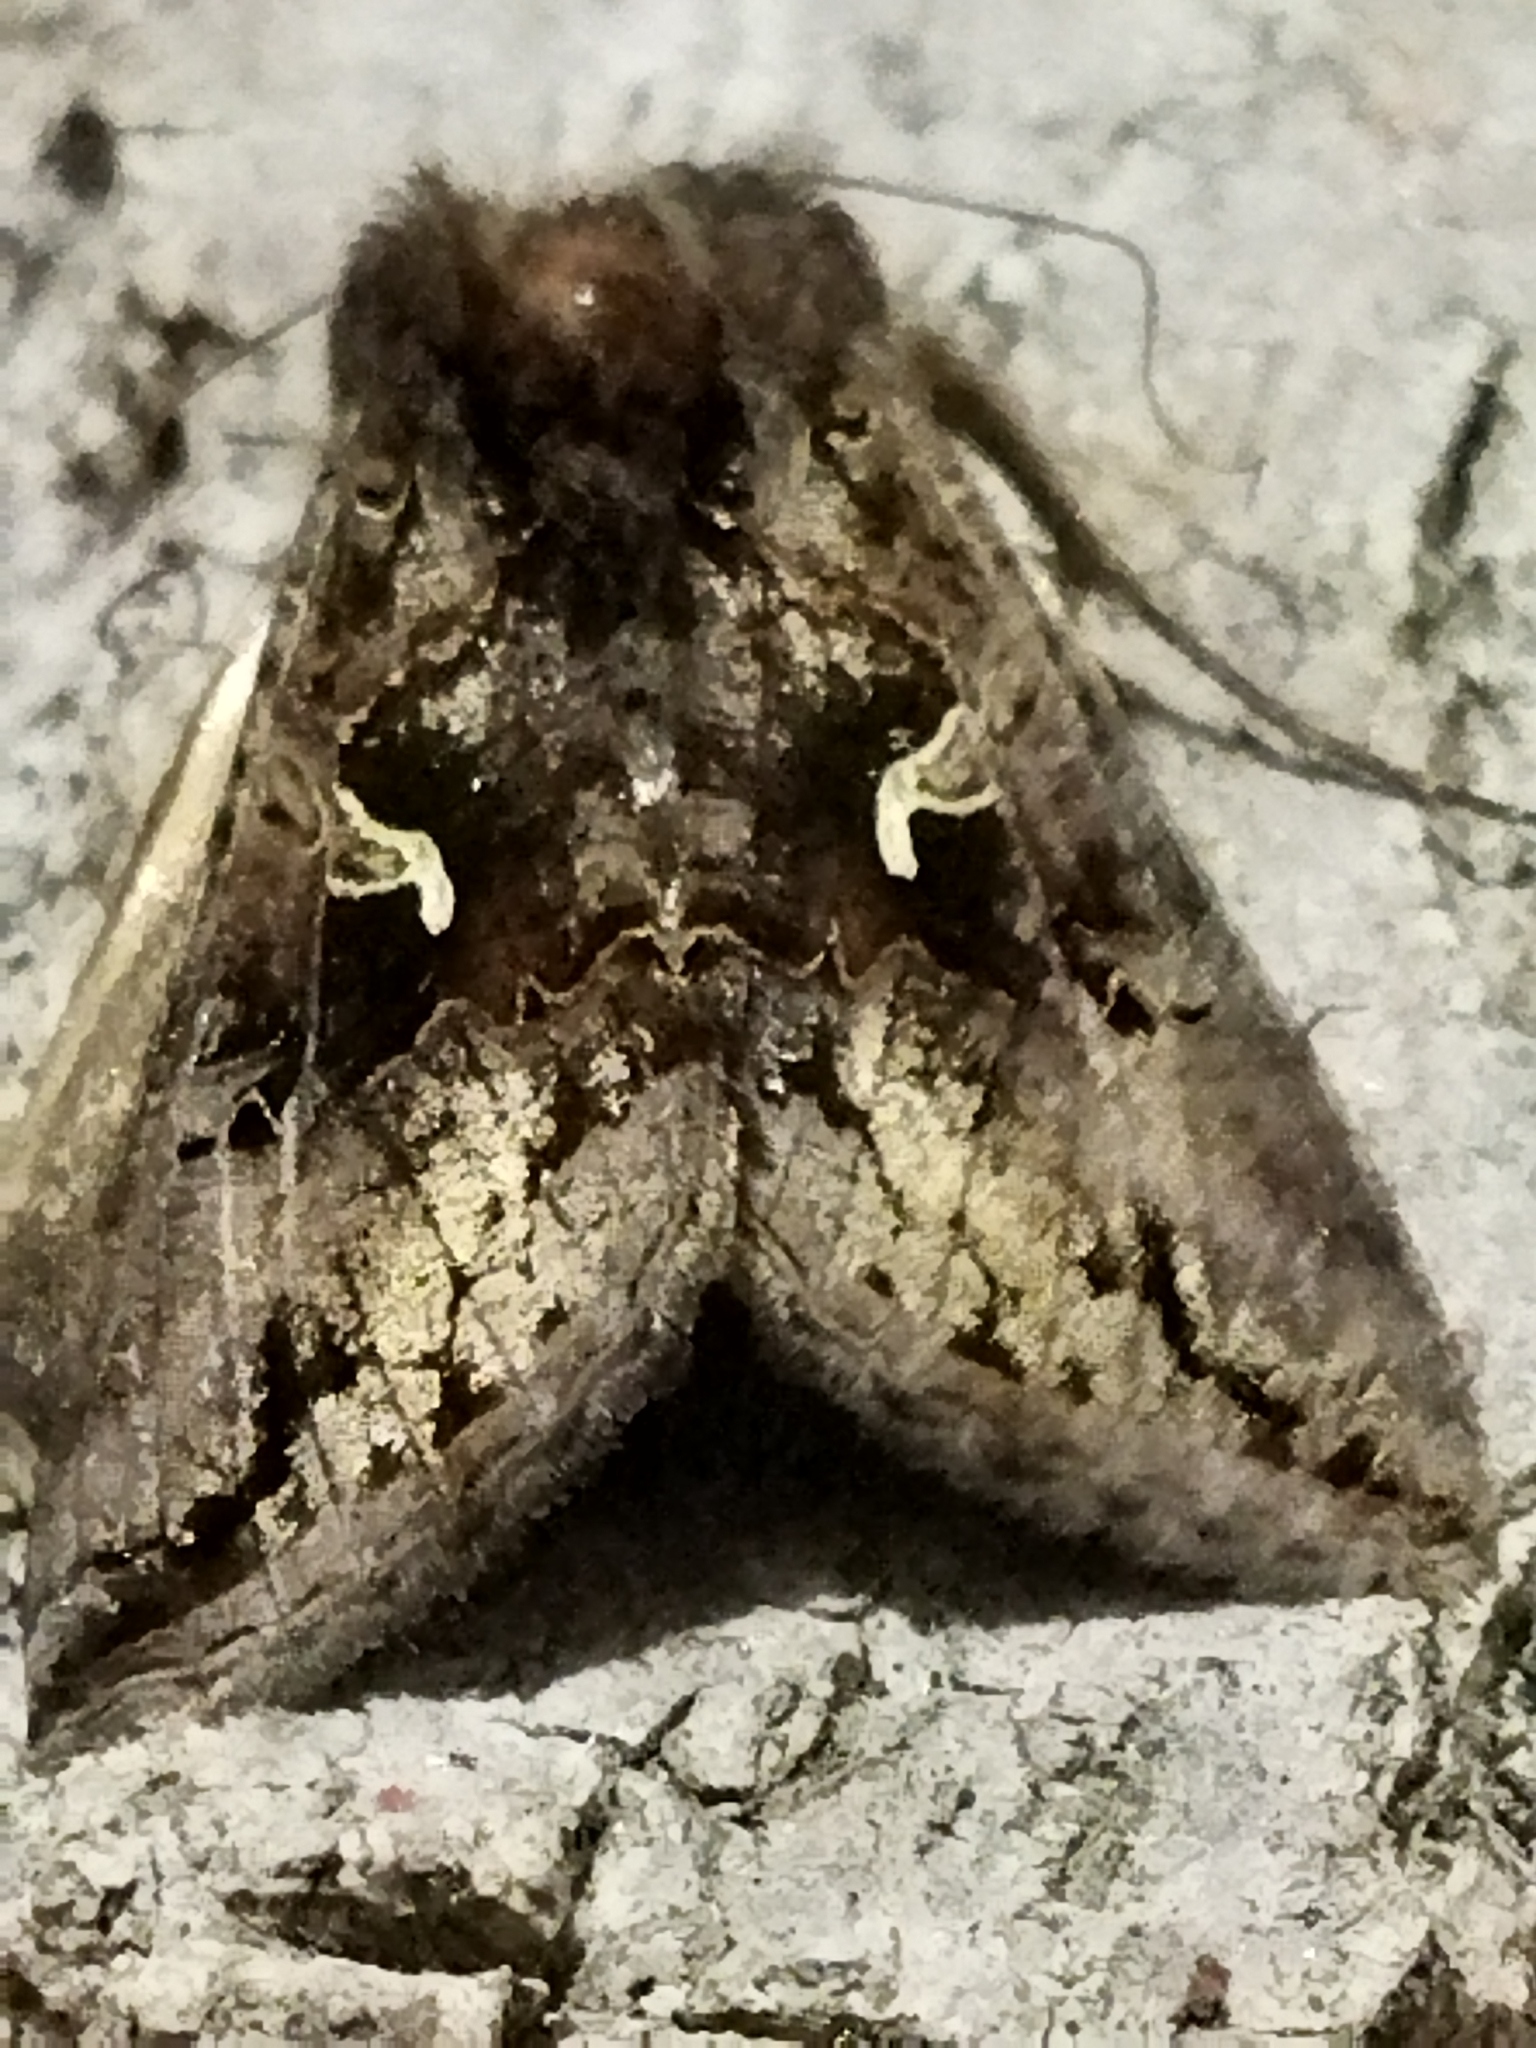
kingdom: Animalia
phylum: Arthropoda
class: Insecta
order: Lepidoptera
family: Noctuidae
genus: Autographa
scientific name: Autographa gamma
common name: Silver y
